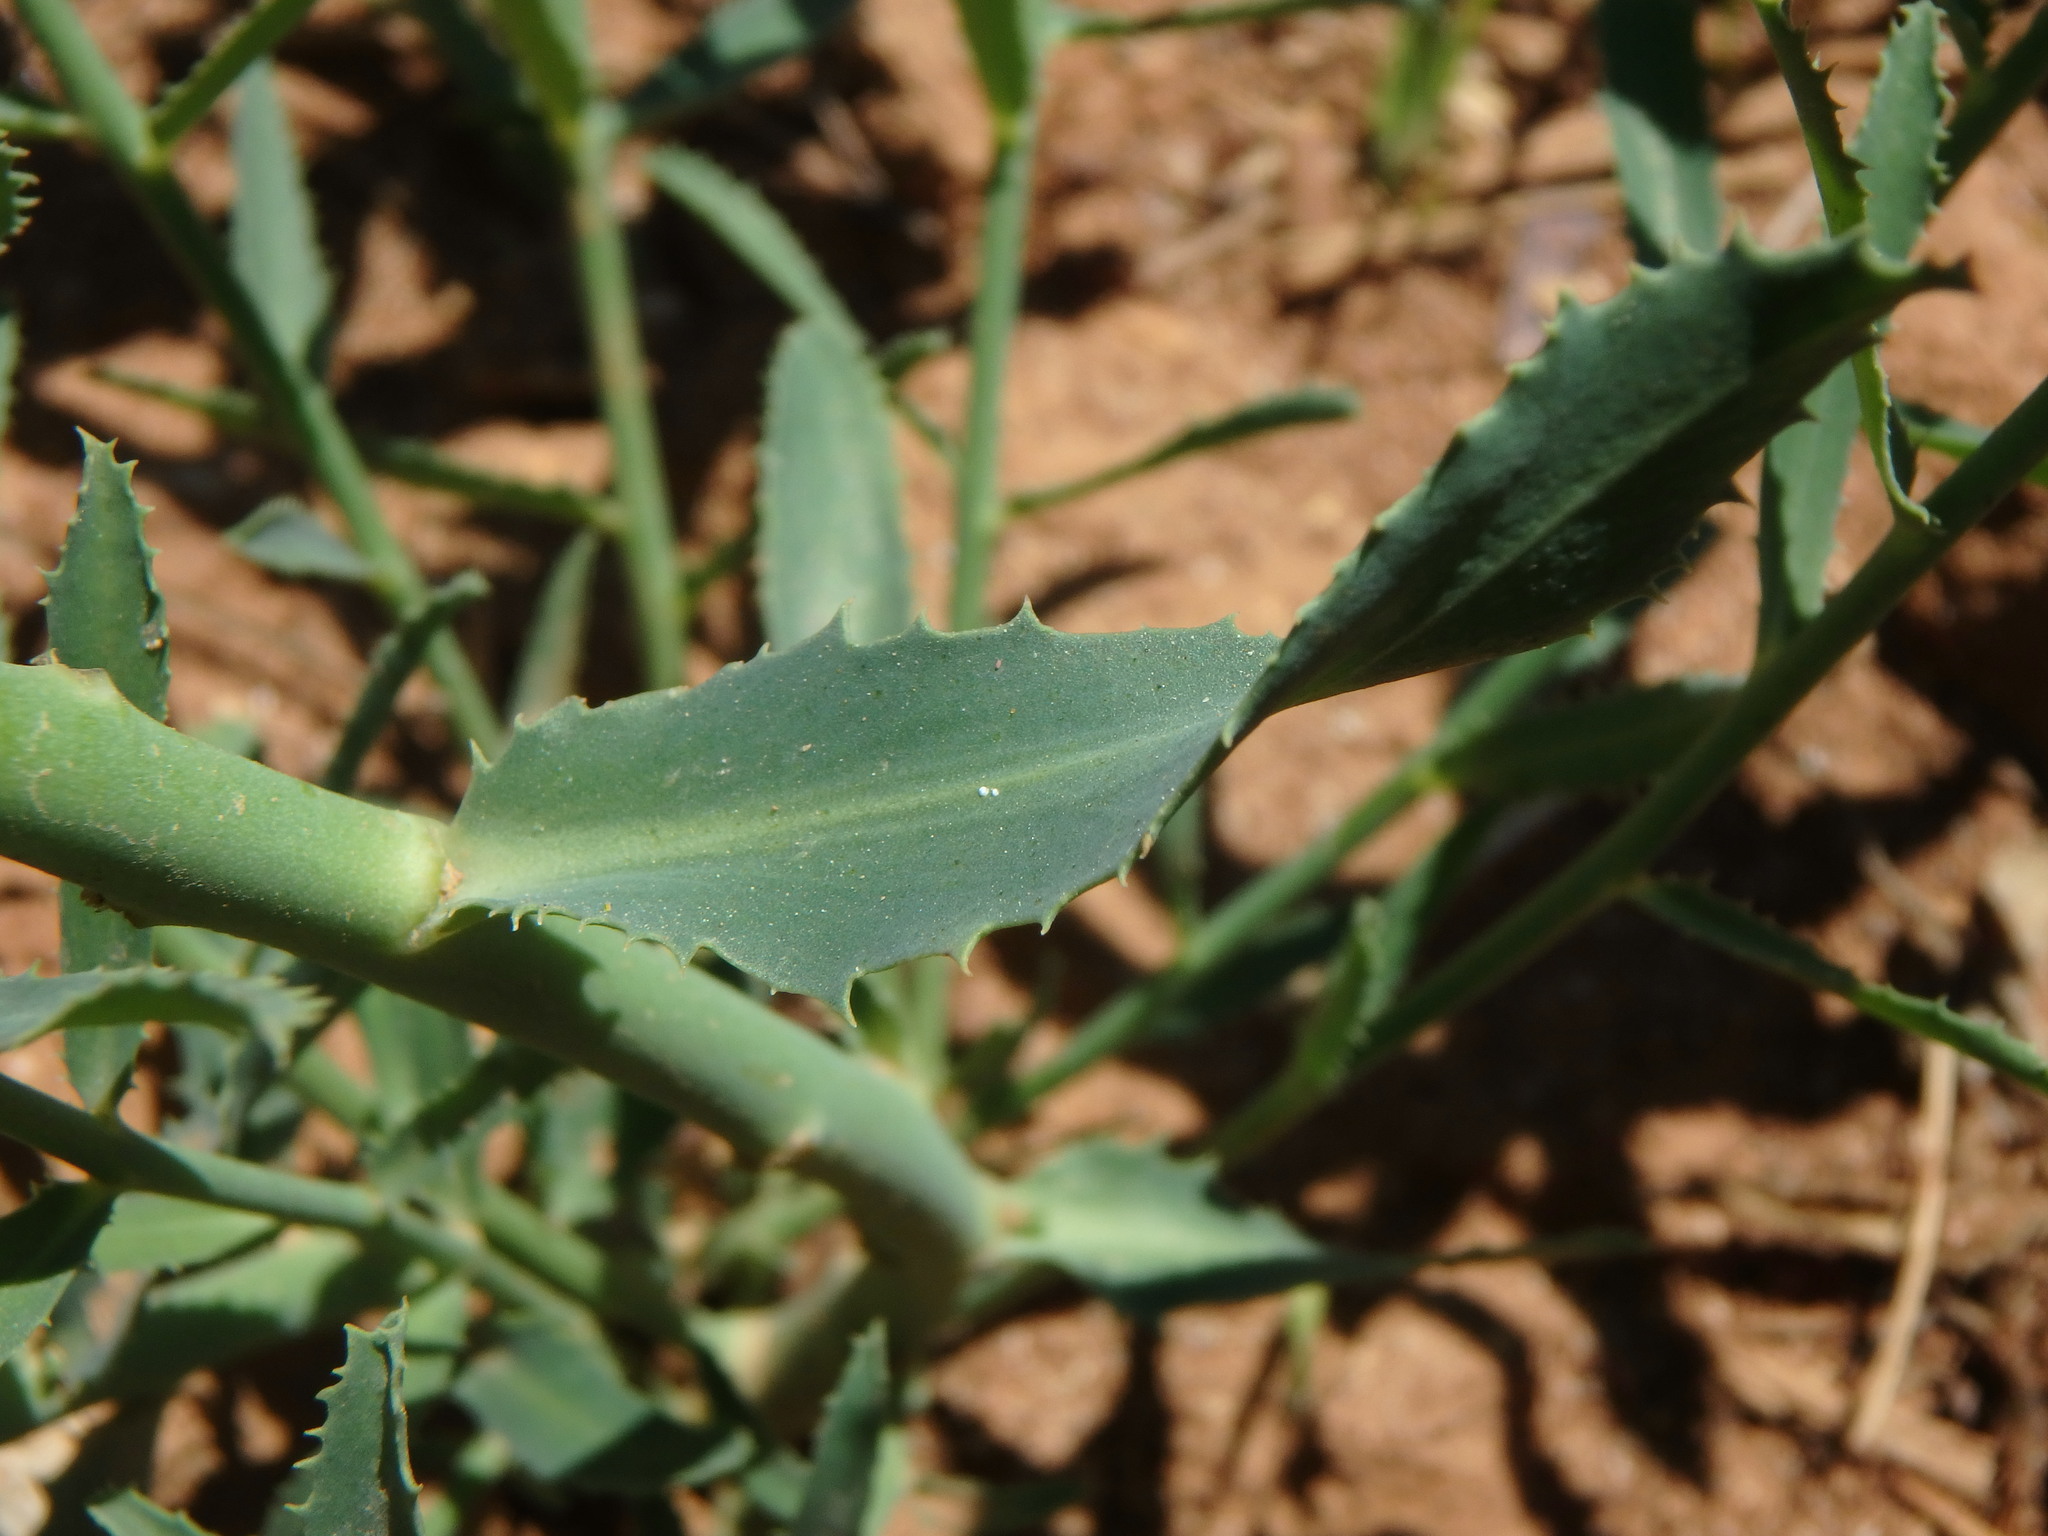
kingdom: Plantae
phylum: Tracheophyta
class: Magnoliopsida
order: Malpighiales
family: Euphorbiaceae
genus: Euphorbia
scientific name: Euphorbia serrata
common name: Serrate spurge
